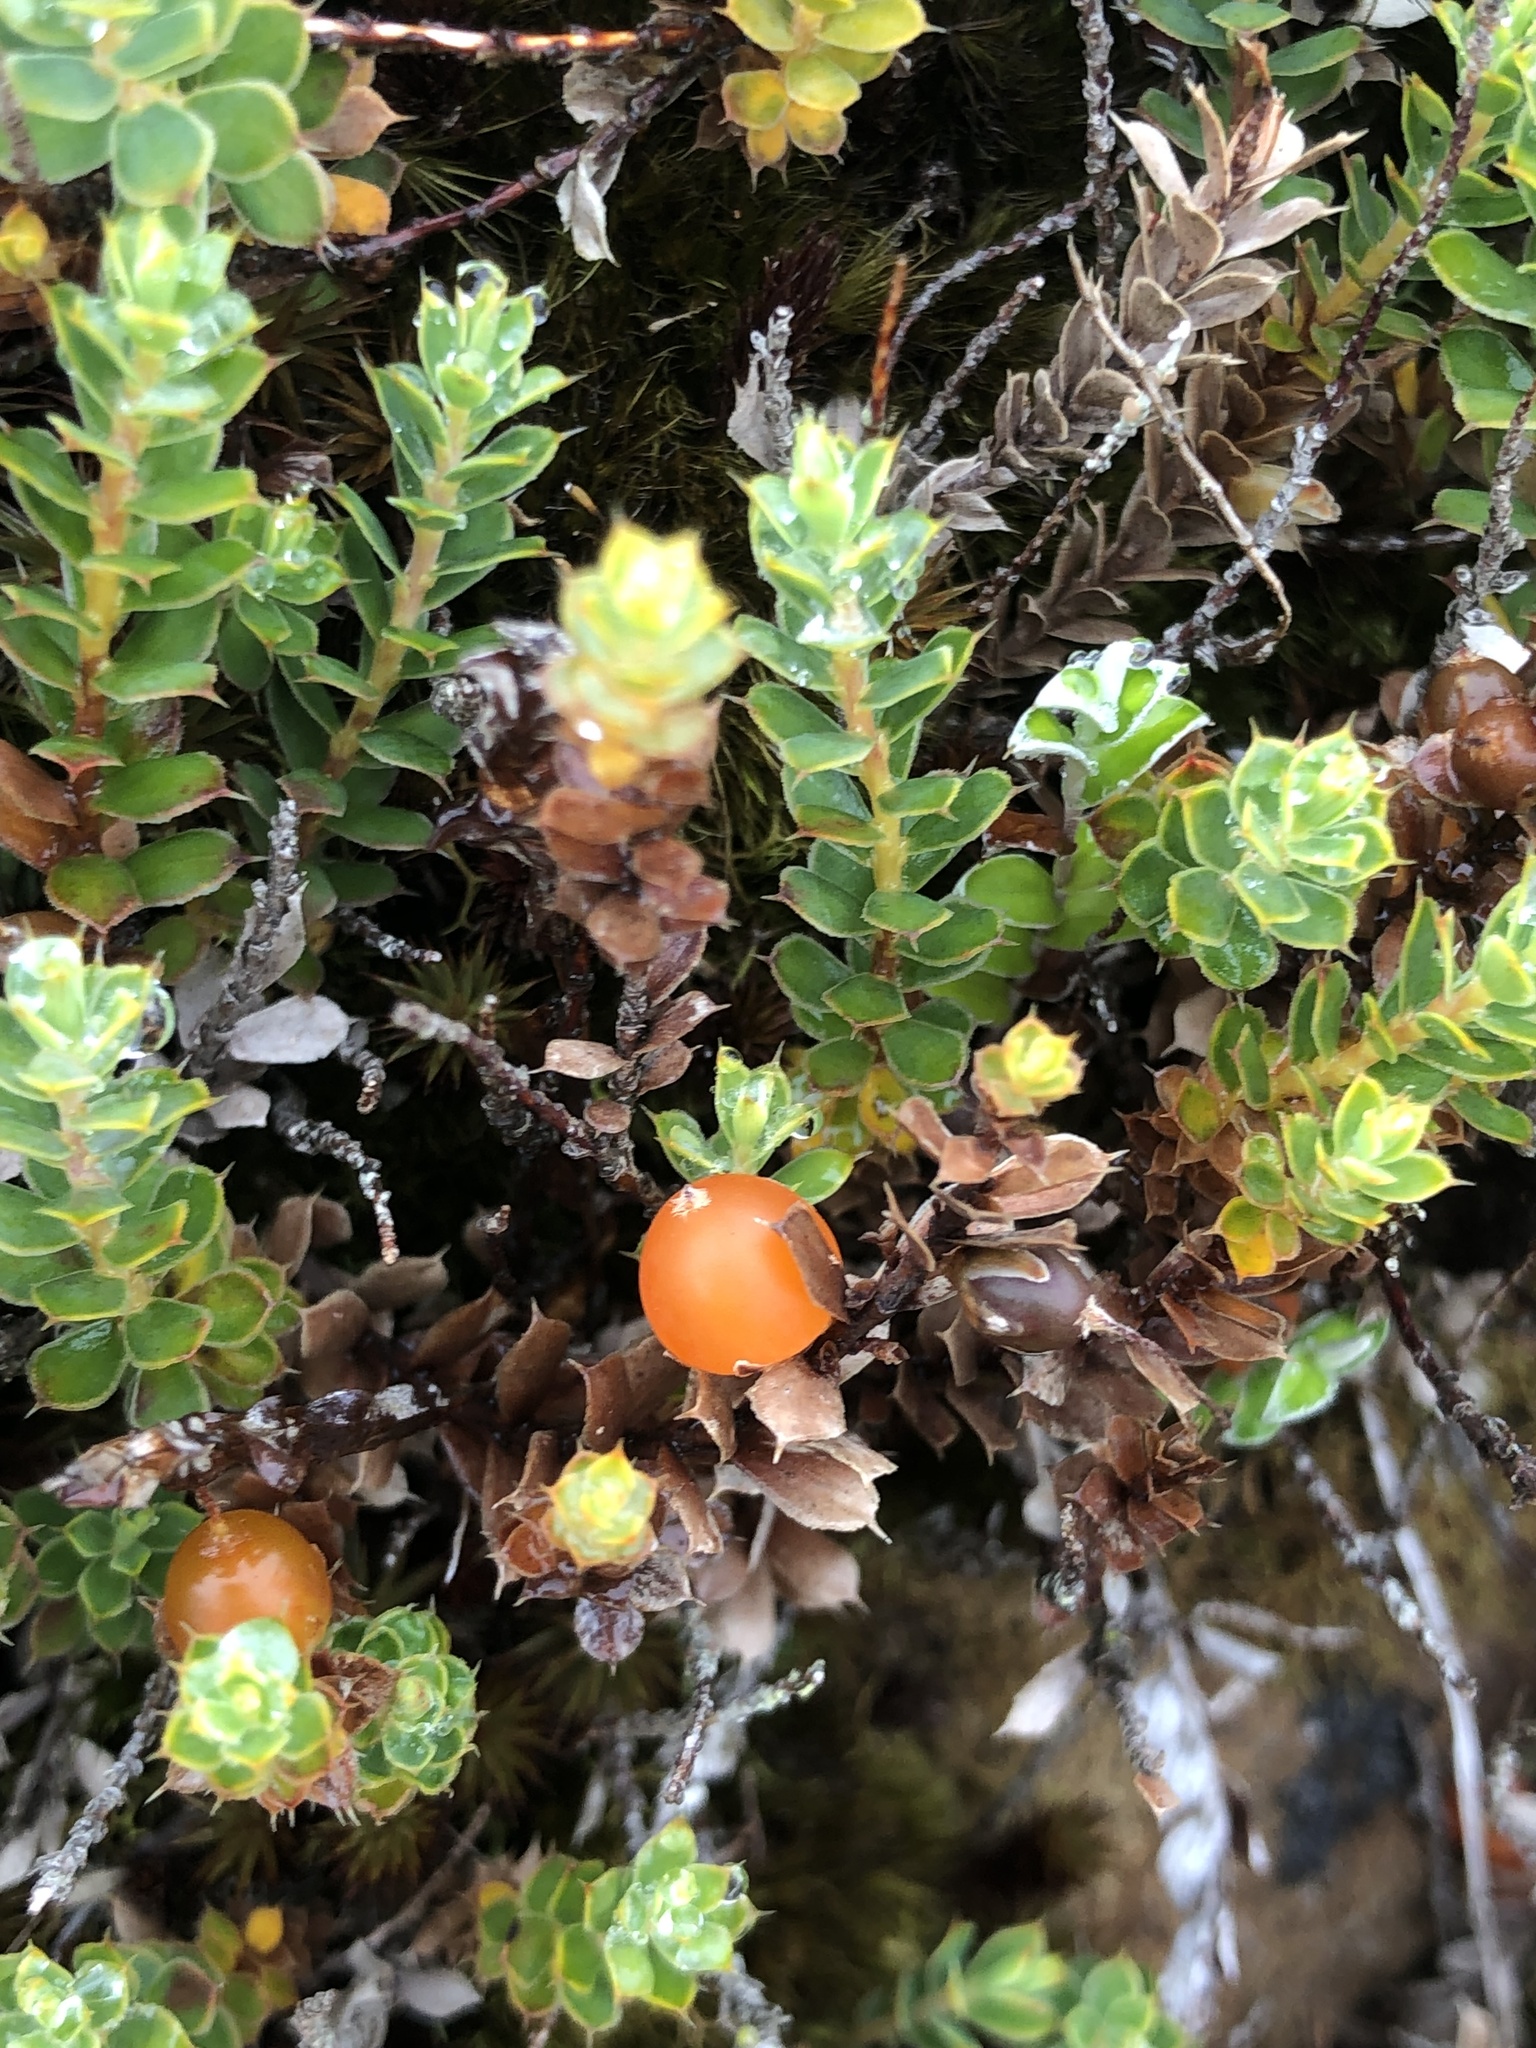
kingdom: Plantae
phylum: Tracheophyta
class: Magnoliopsida
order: Ericales
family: Ericaceae
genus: Styphelia
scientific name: Styphelia nesophila
